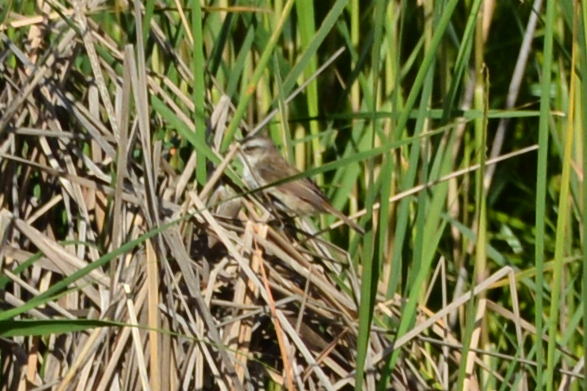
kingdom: Animalia
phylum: Chordata
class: Aves
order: Passeriformes
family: Acrocephalidae
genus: Acrocephalus
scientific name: Acrocephalus melanopogon
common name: Moustached warbler
